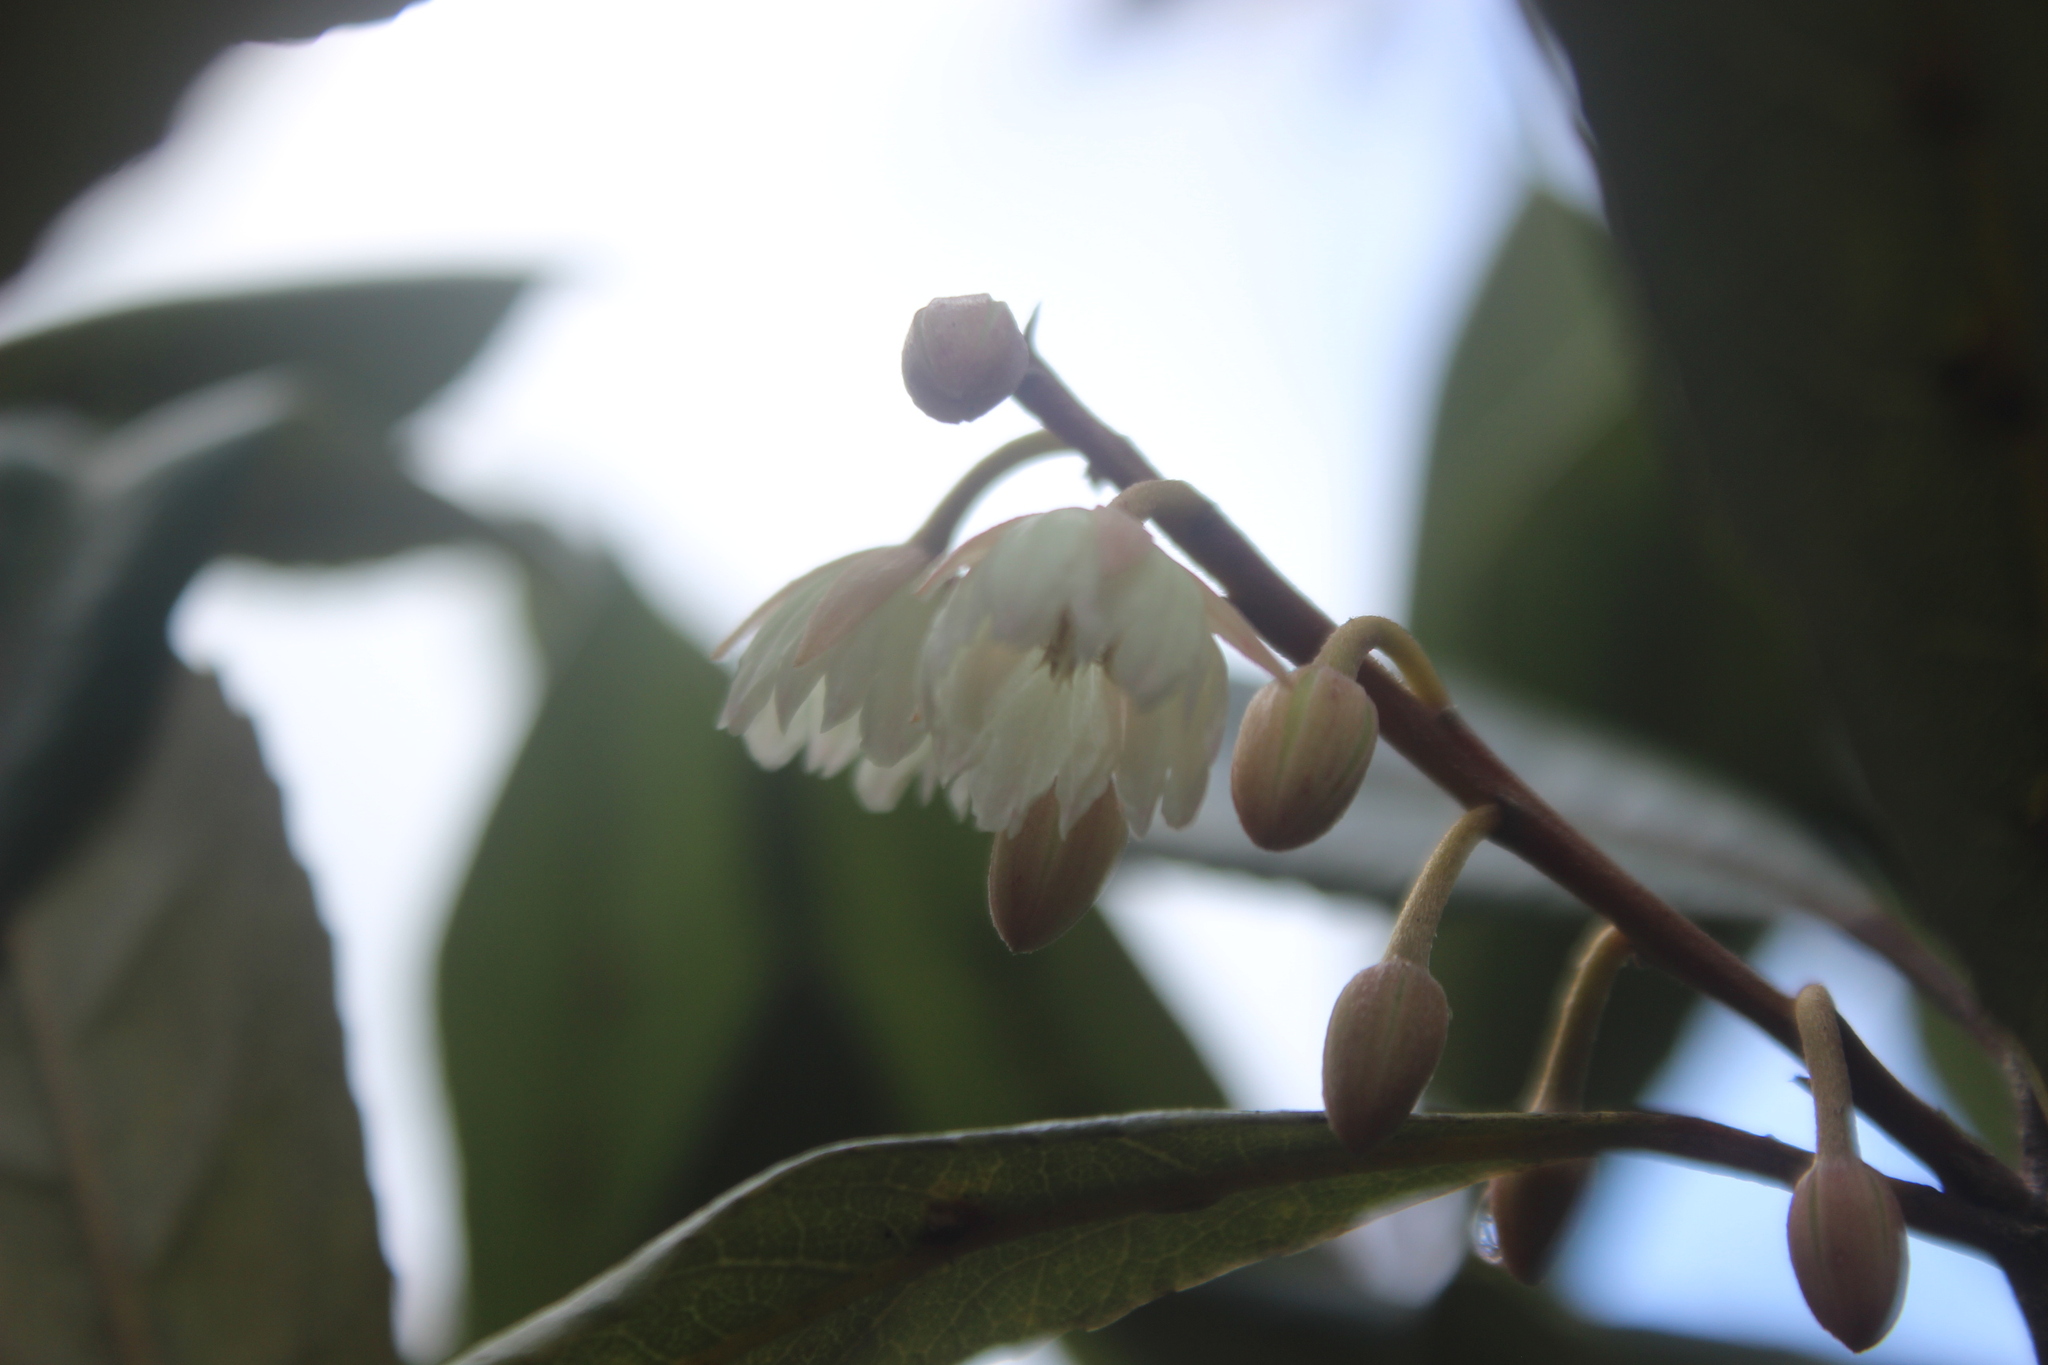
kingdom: Plantae
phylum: Tracheophyta
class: Magnoliopsida
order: Oxalidales
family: Elaeocarpaceae
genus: Elaeocarpus
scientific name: Elaeocarpus dentatus
